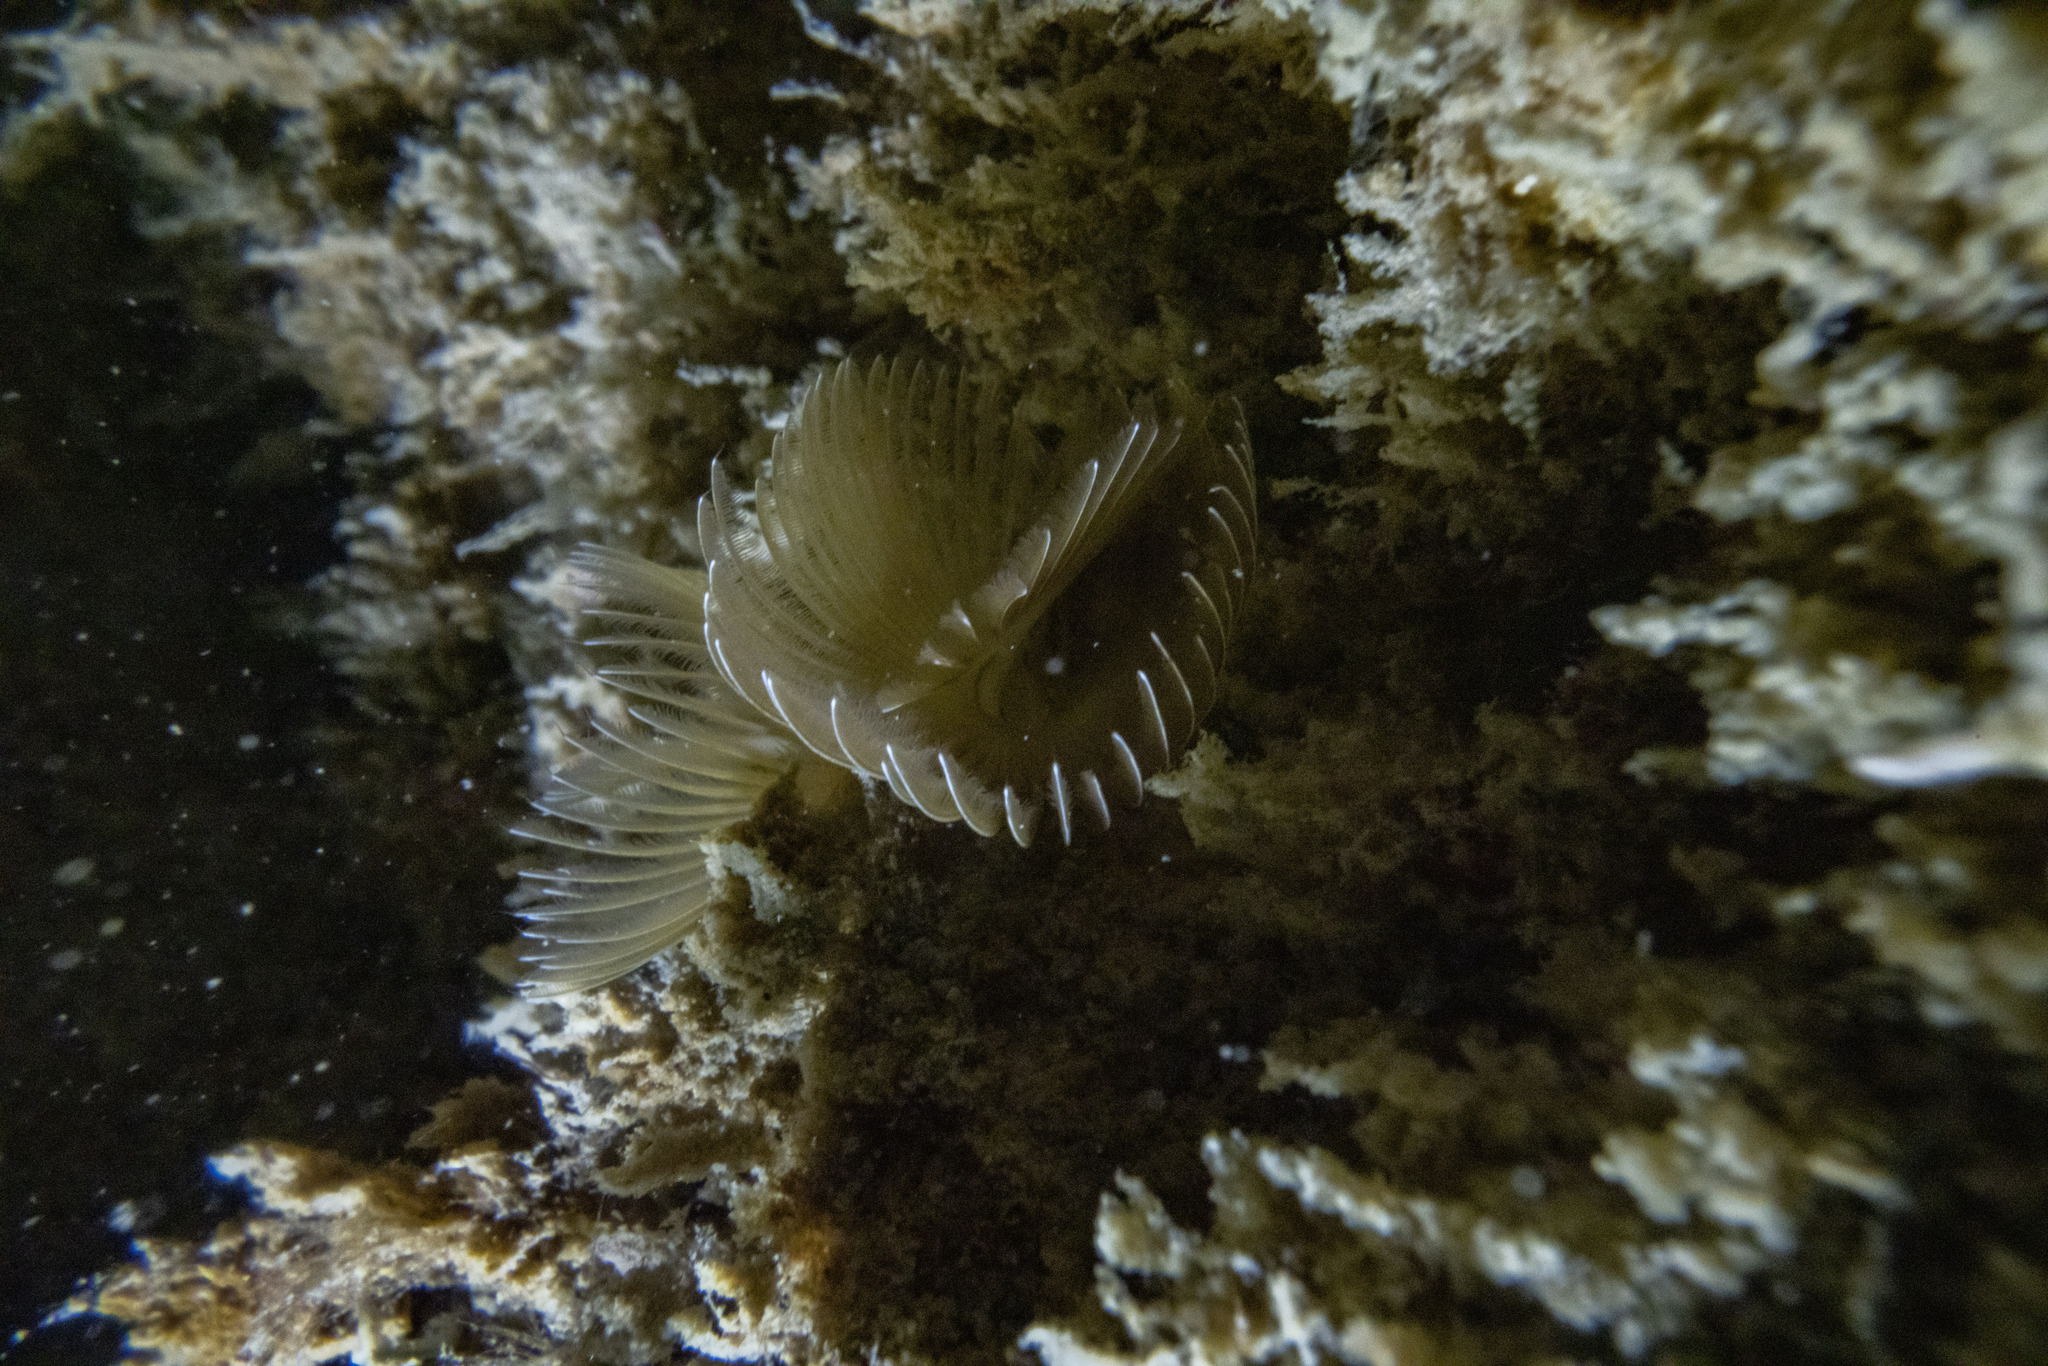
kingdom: Animalia
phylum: Annelida
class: Polychaeta
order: Sabellida
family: Serpulidae
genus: Neovermilia
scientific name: Neovermilia sphaeropomata
